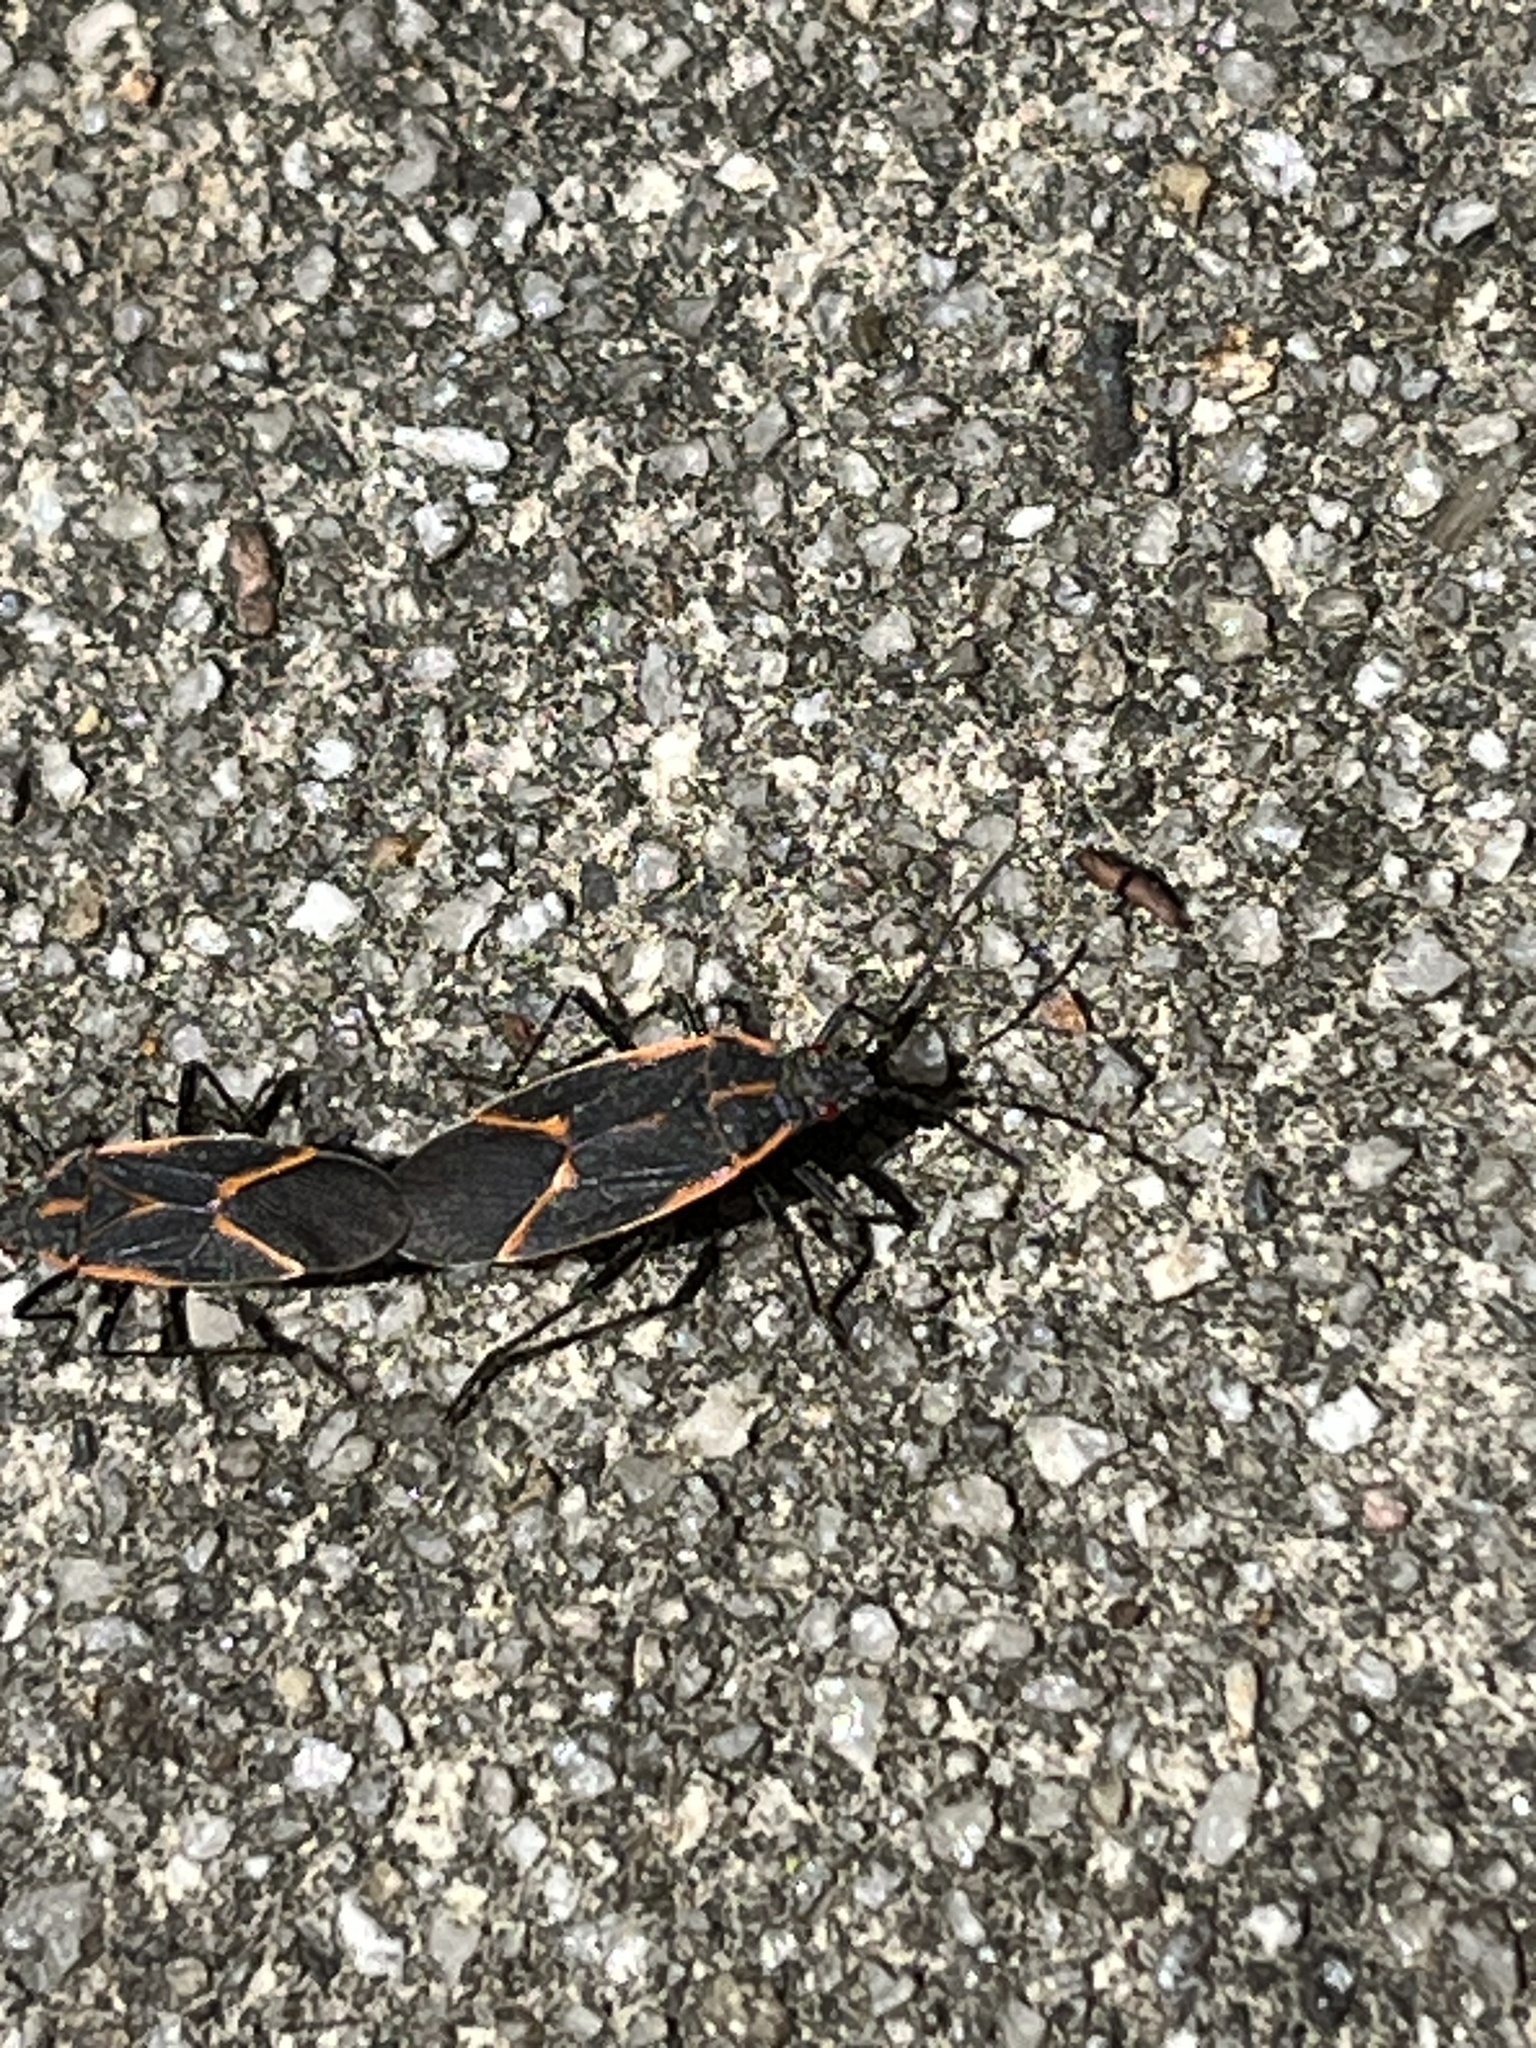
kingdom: Animalia
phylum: Arthropoda
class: Insecta
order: Hemiptera
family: Rhopalidae
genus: Boisea
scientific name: Boisea trivittata
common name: Boxelder bug
